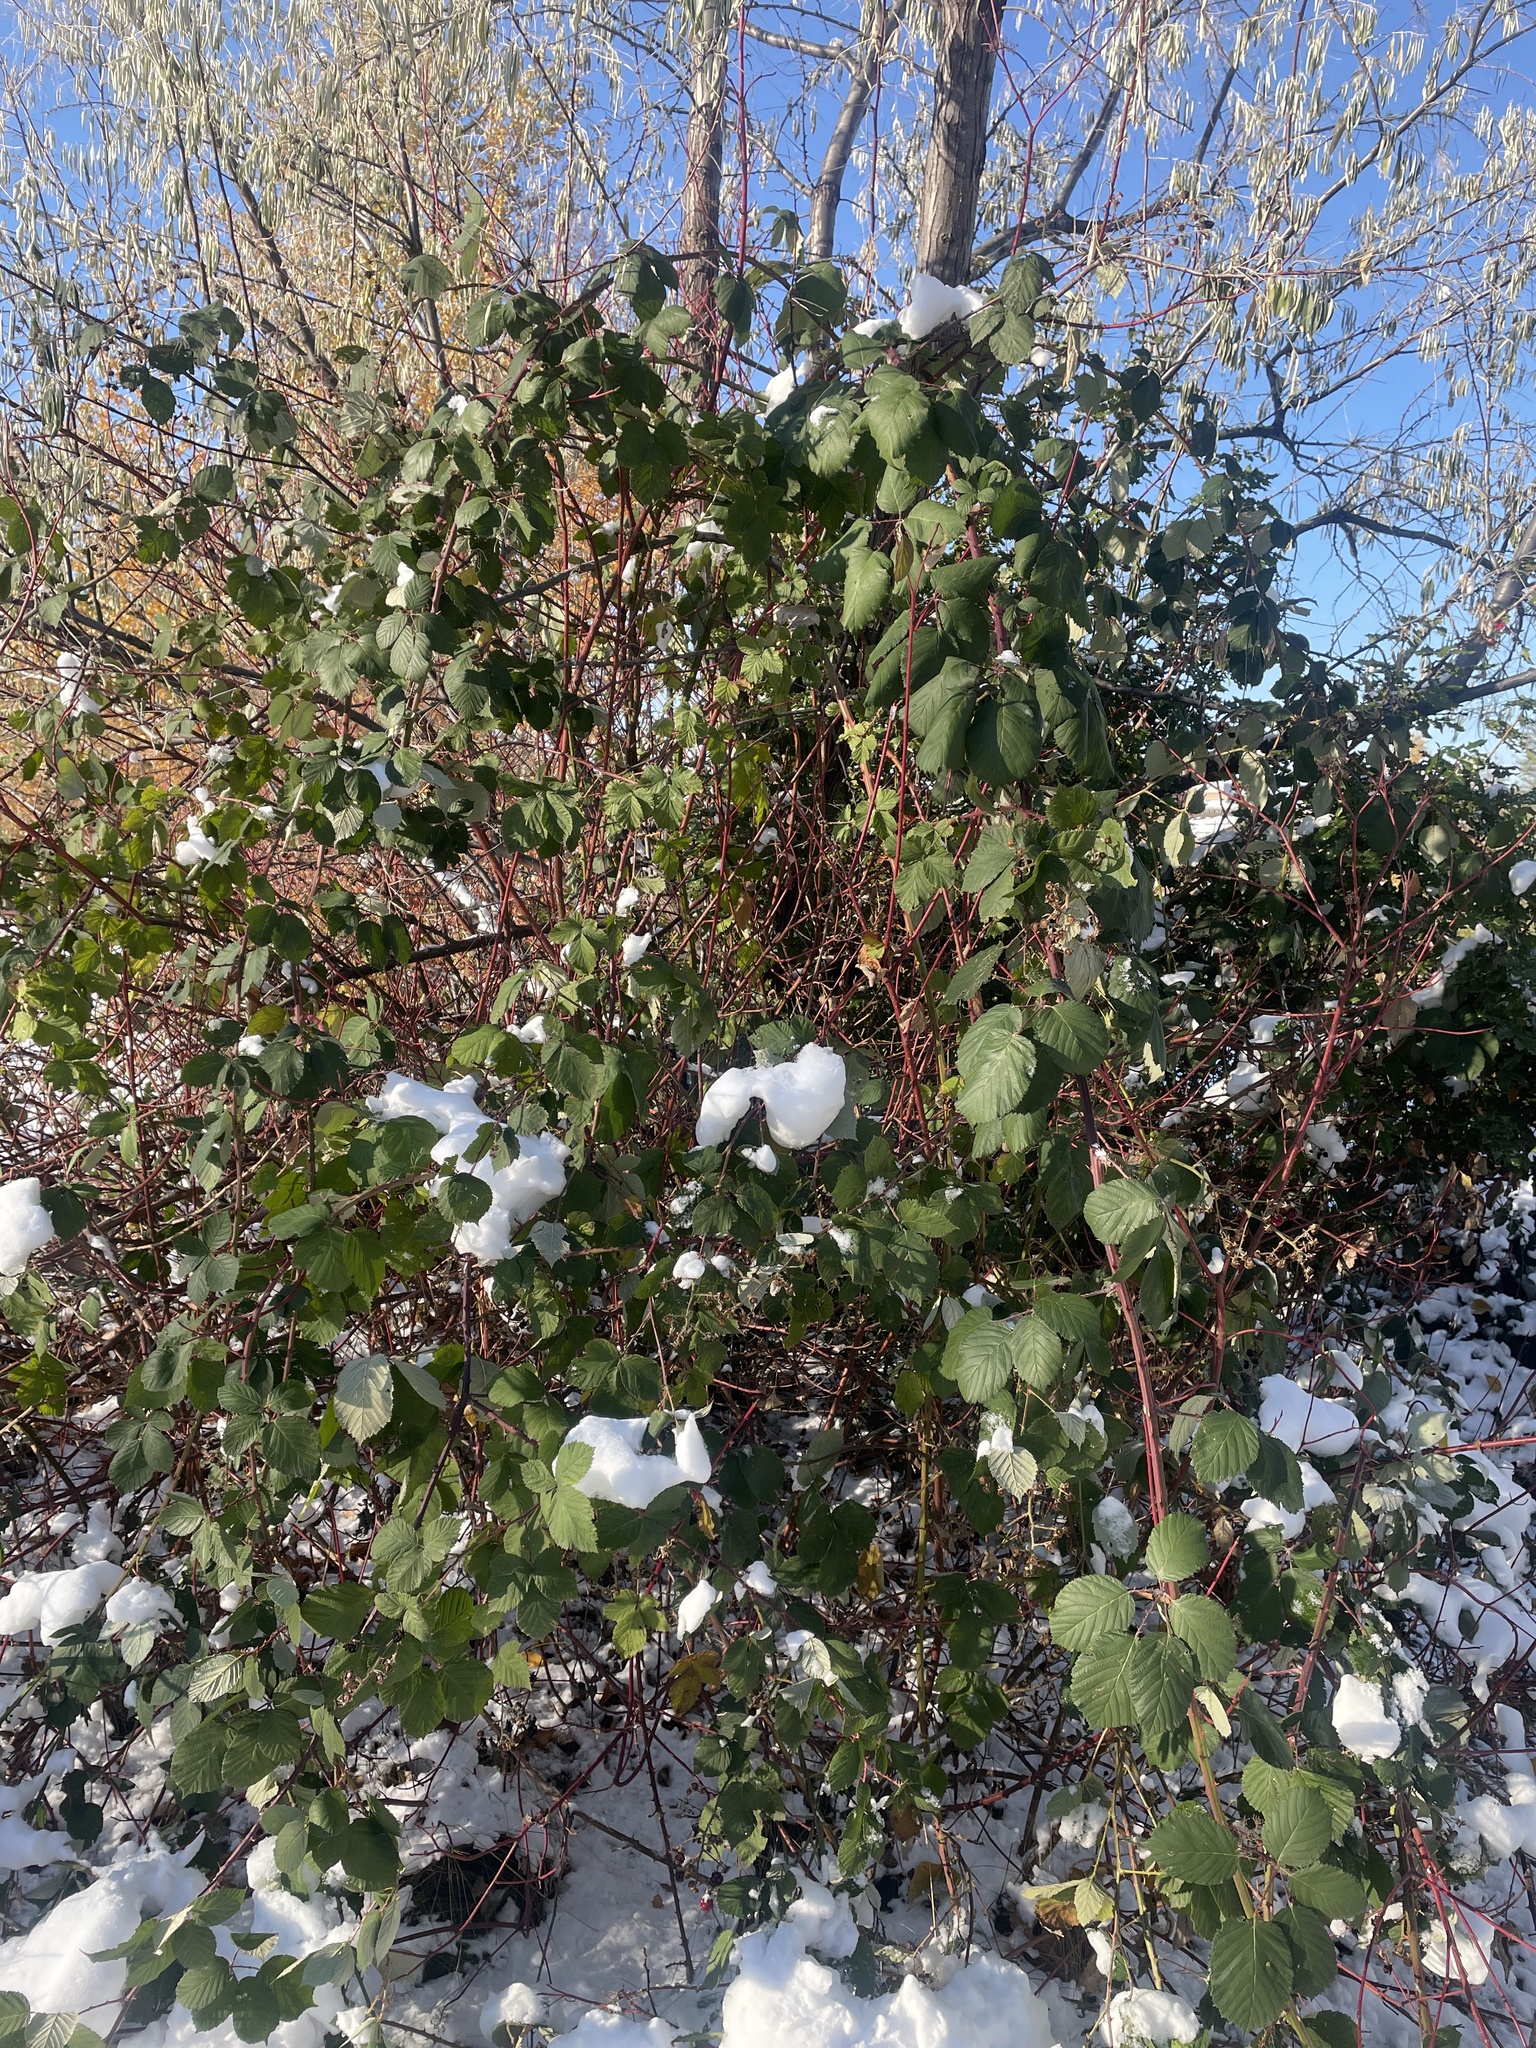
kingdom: Plantae
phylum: Tracheophyta
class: Magnoliopsida
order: Rosales
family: Rosaceae
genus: Rubus
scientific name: Rubus bifrons
